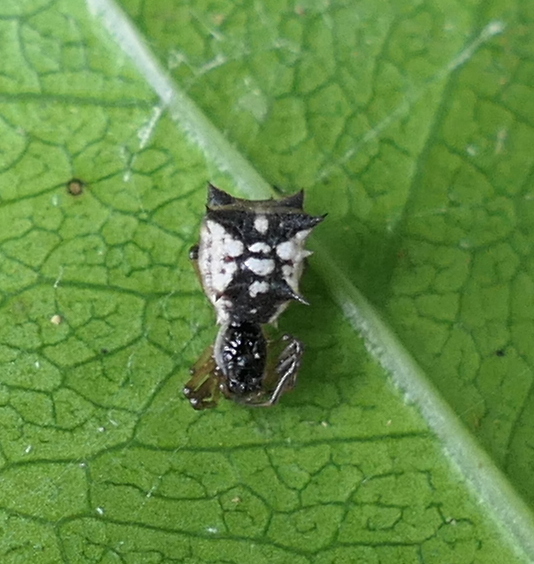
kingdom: Animalia
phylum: Arthropoda
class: Arachnida
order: Araneae
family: Araneidae
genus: Micrathena
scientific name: Micrathena picta
